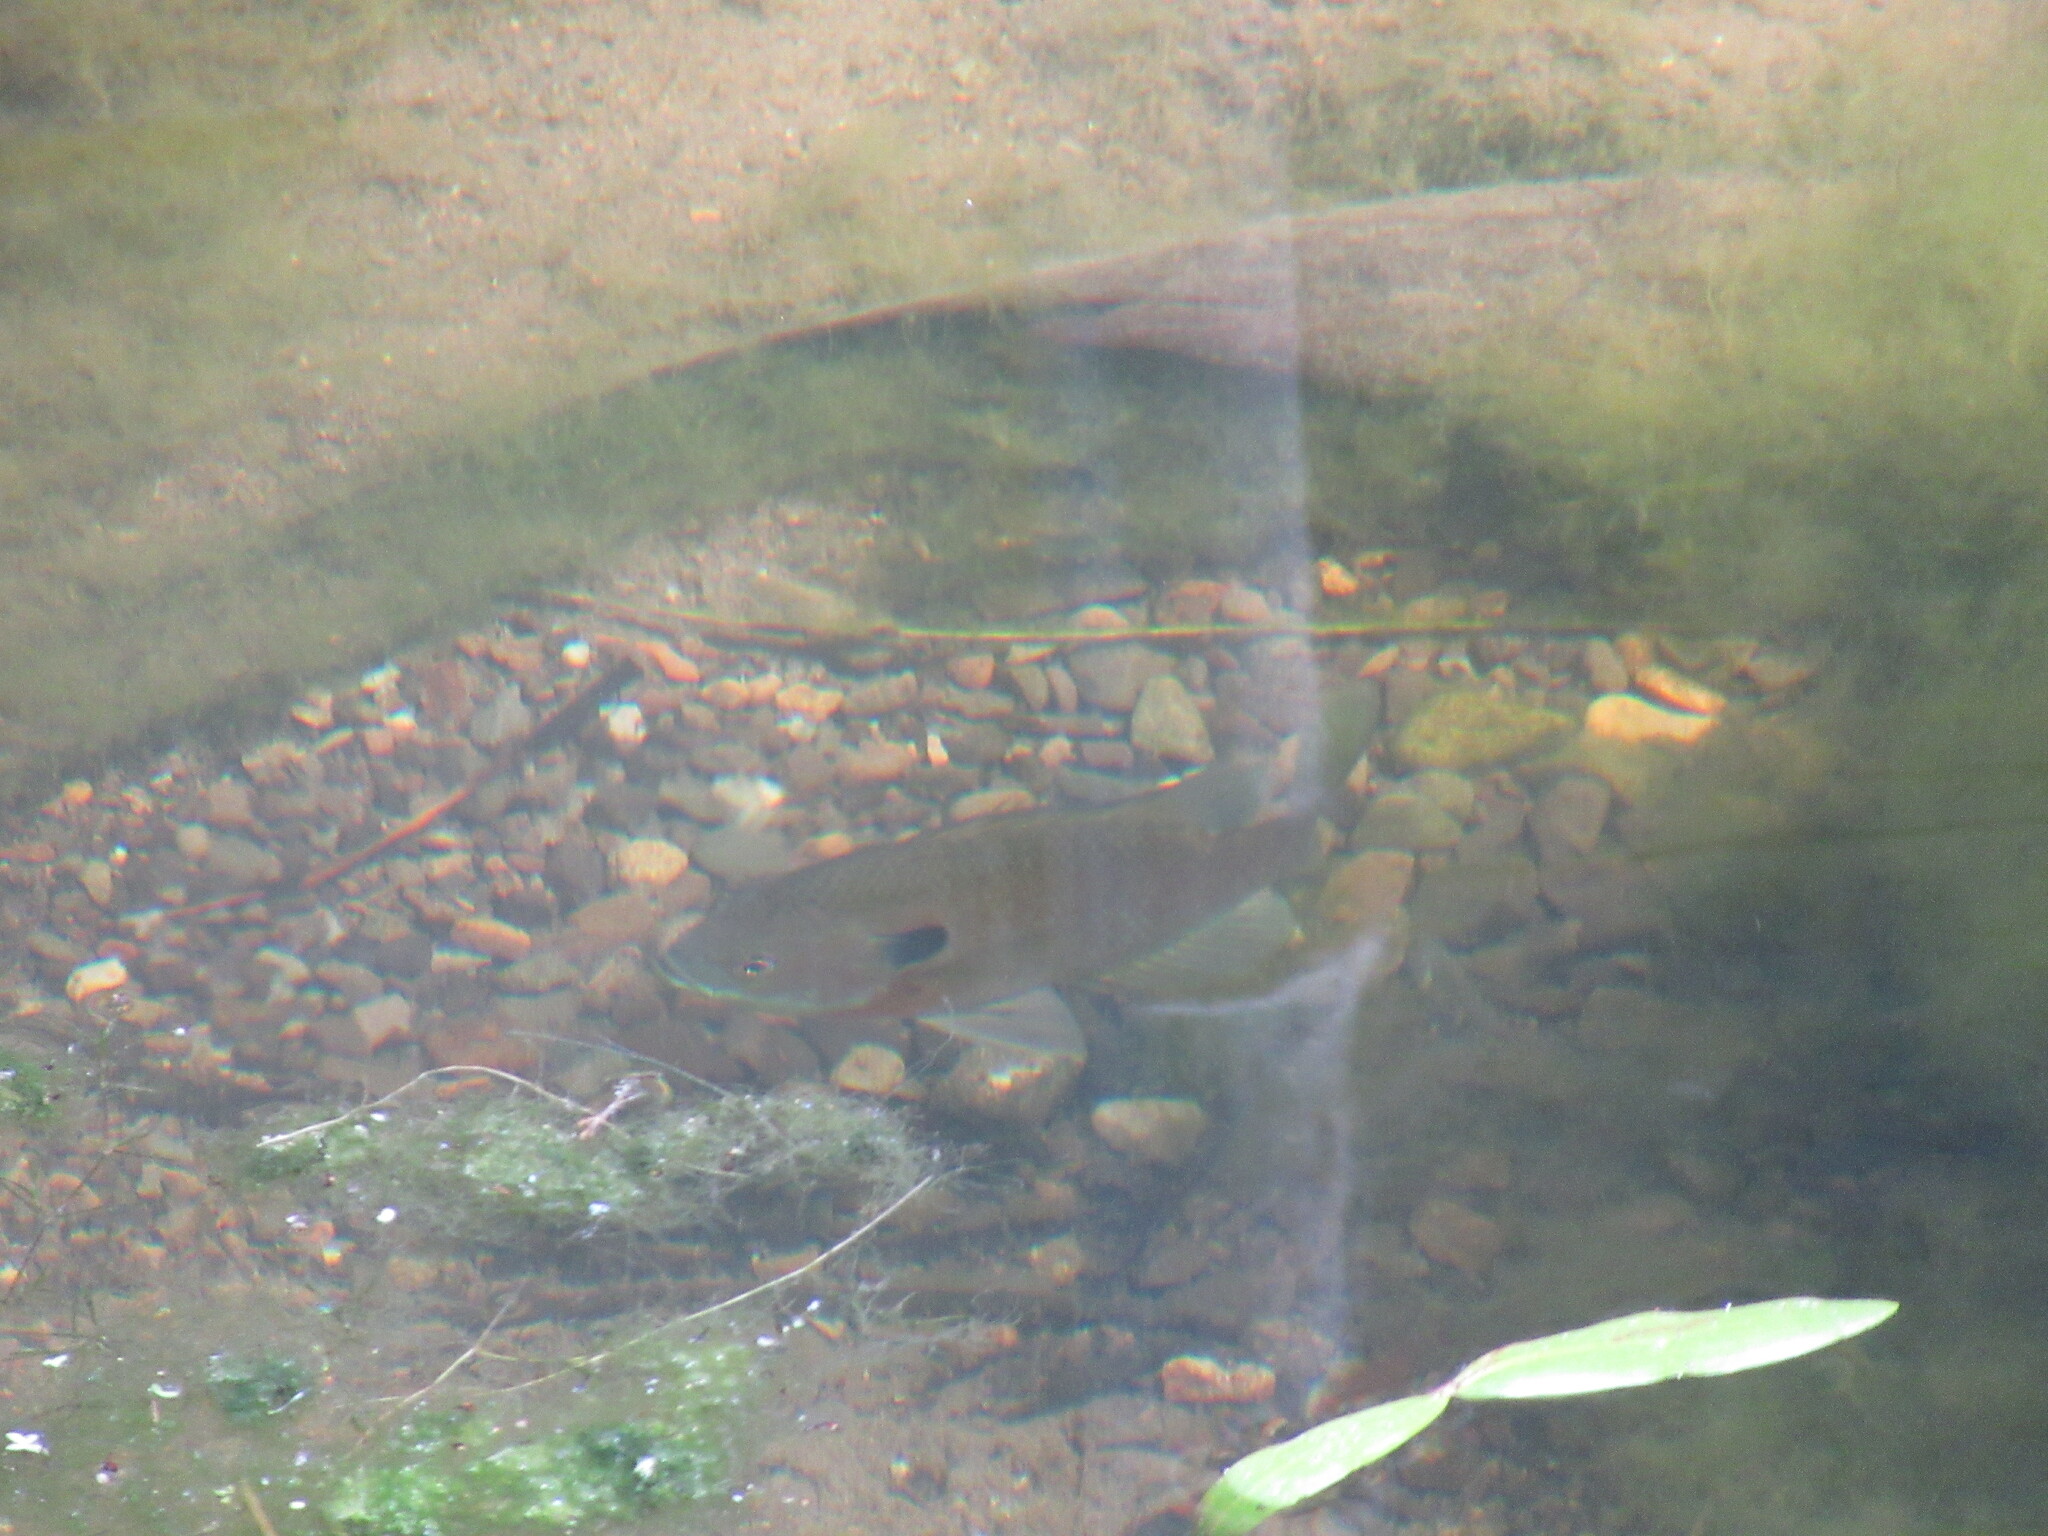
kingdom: Animalia
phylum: Chordata
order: Perciformes
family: Centrarchidae
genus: Lepomis
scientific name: Lepomis macrochirus
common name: Bluegill
